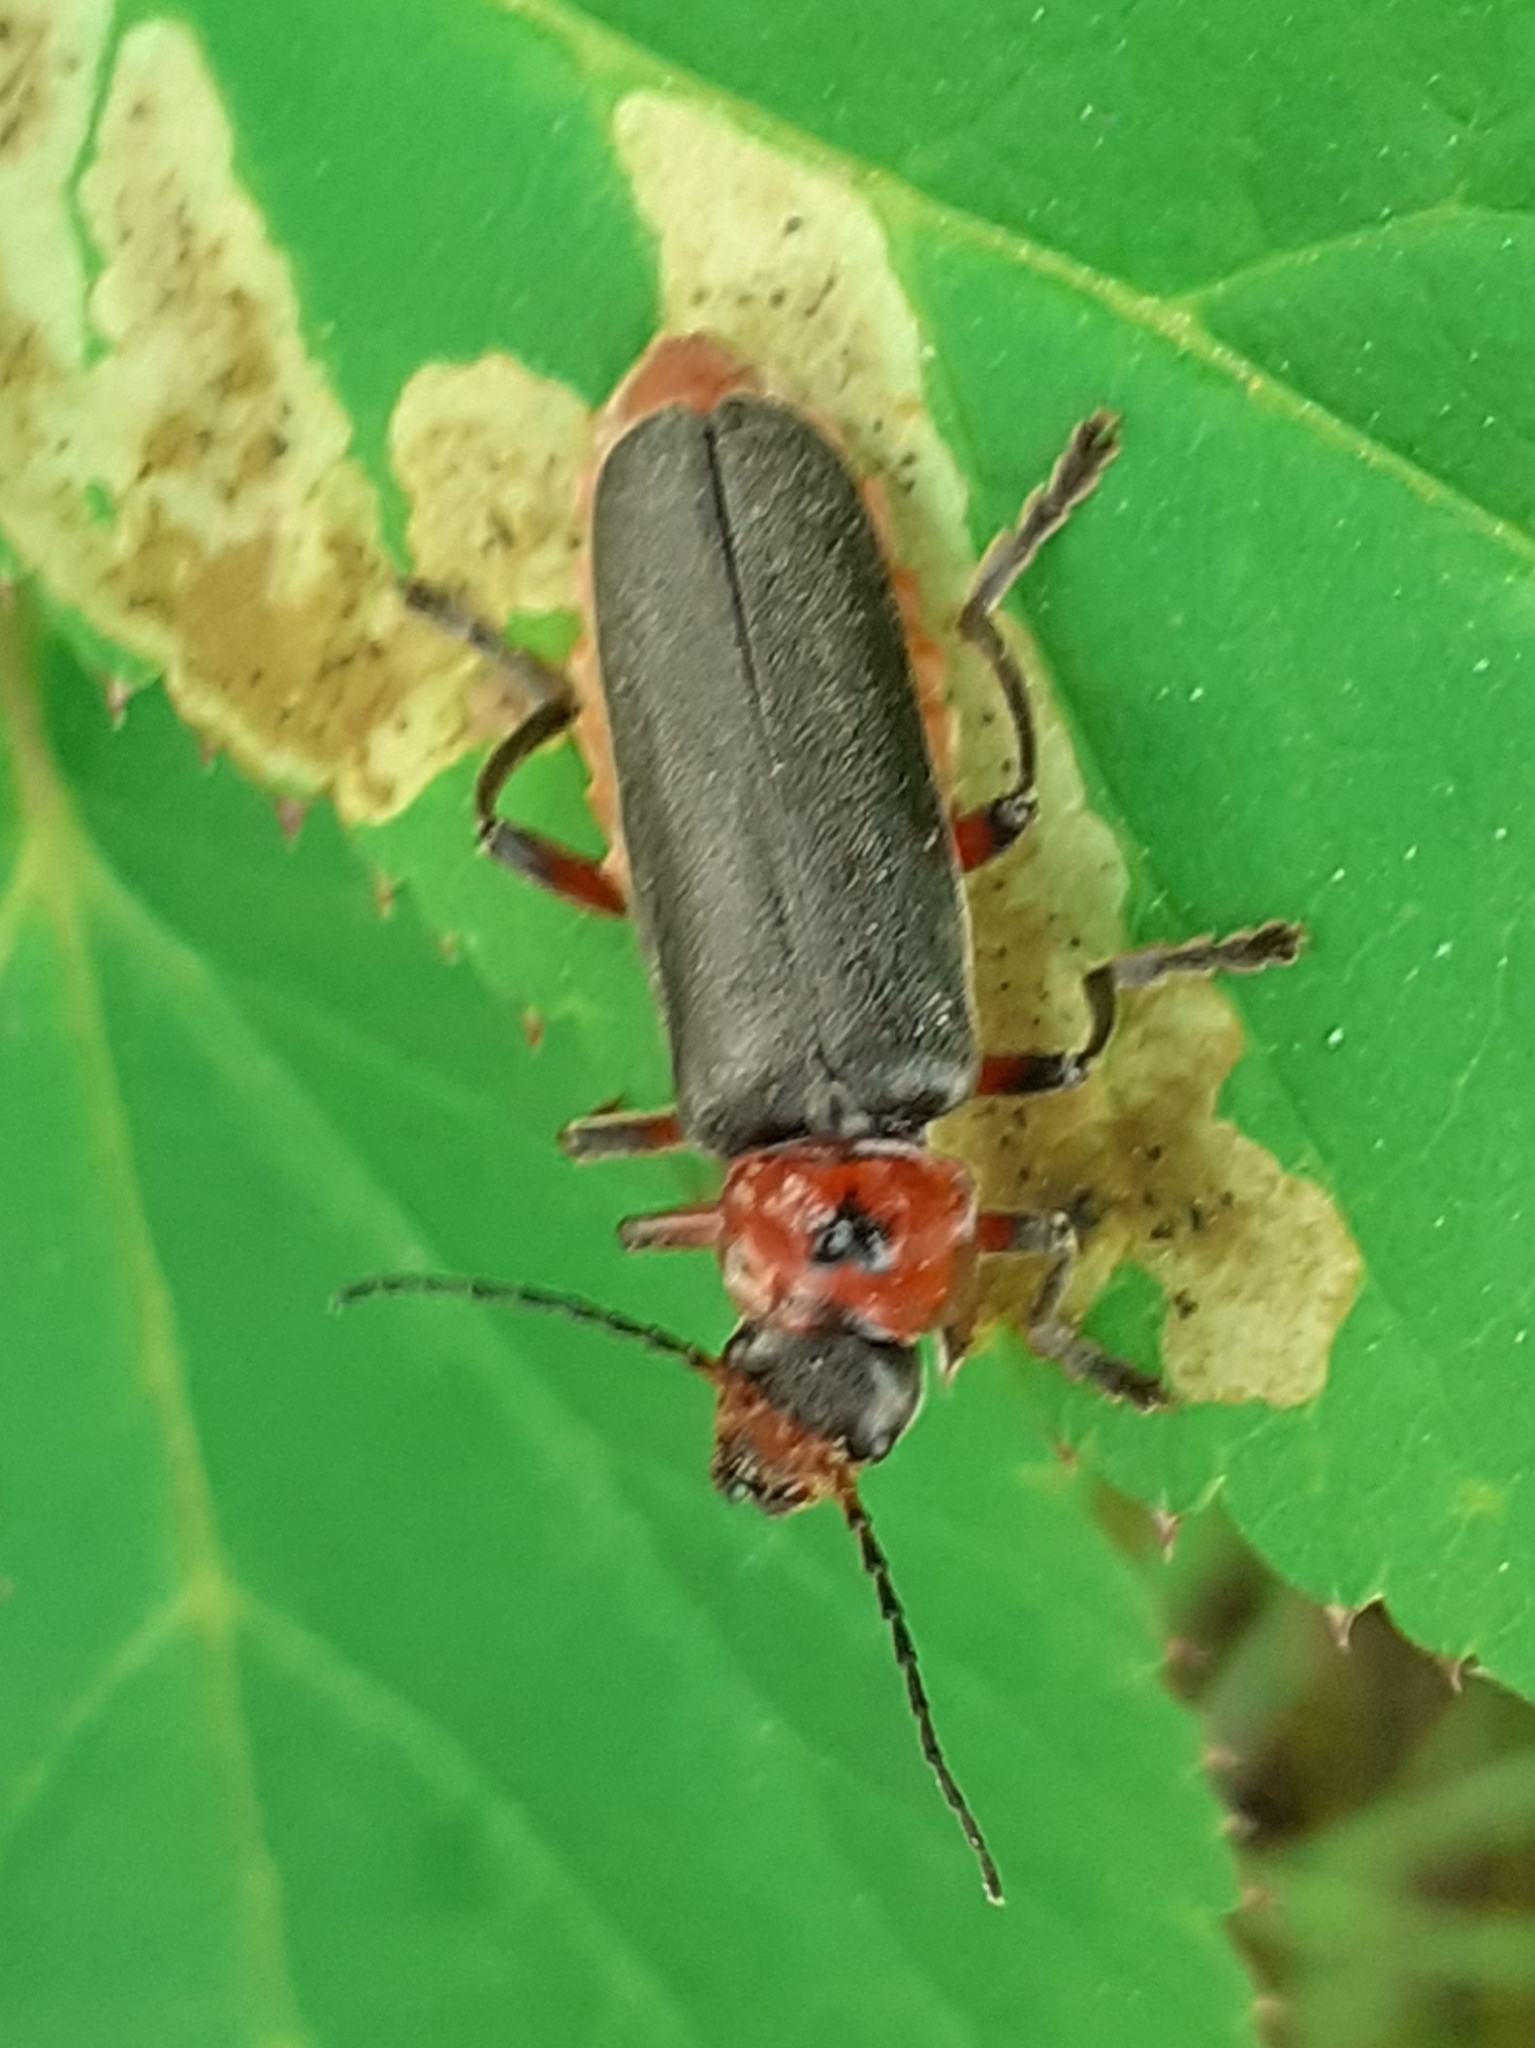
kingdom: Animalia
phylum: Arthropoda
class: Insecta
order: Coleoptera
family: Cantharidae
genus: Cantharis
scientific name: Cantharis rustica
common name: Soldier beetle
